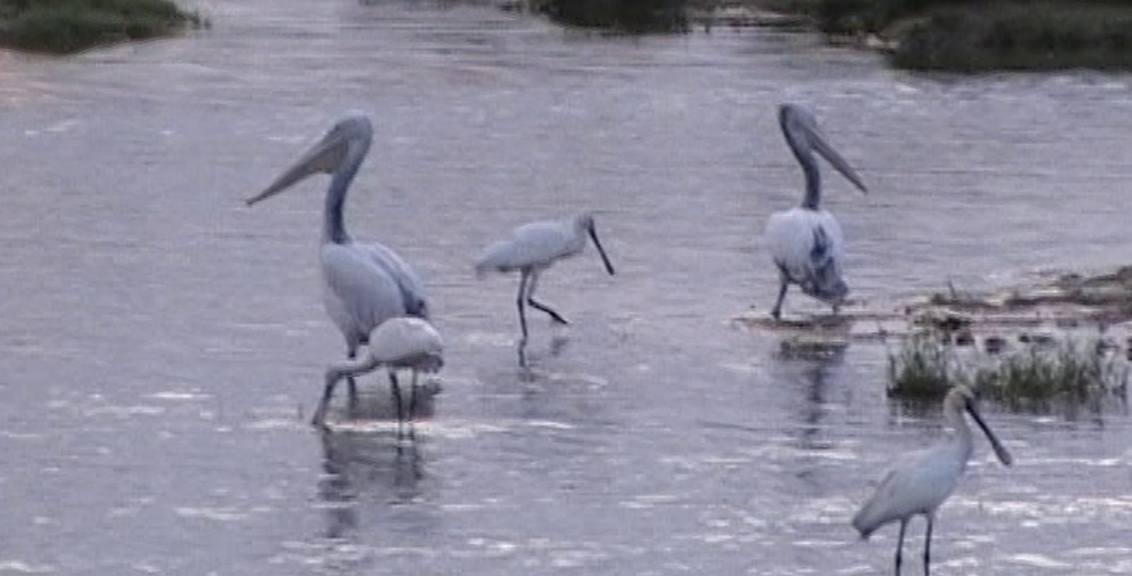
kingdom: Animalia
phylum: Chordata
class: Aves
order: Pelecaniformes
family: Pelecanidae
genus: Pelecanus
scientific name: Pelecanus philippensis
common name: Spot-billed pelican
